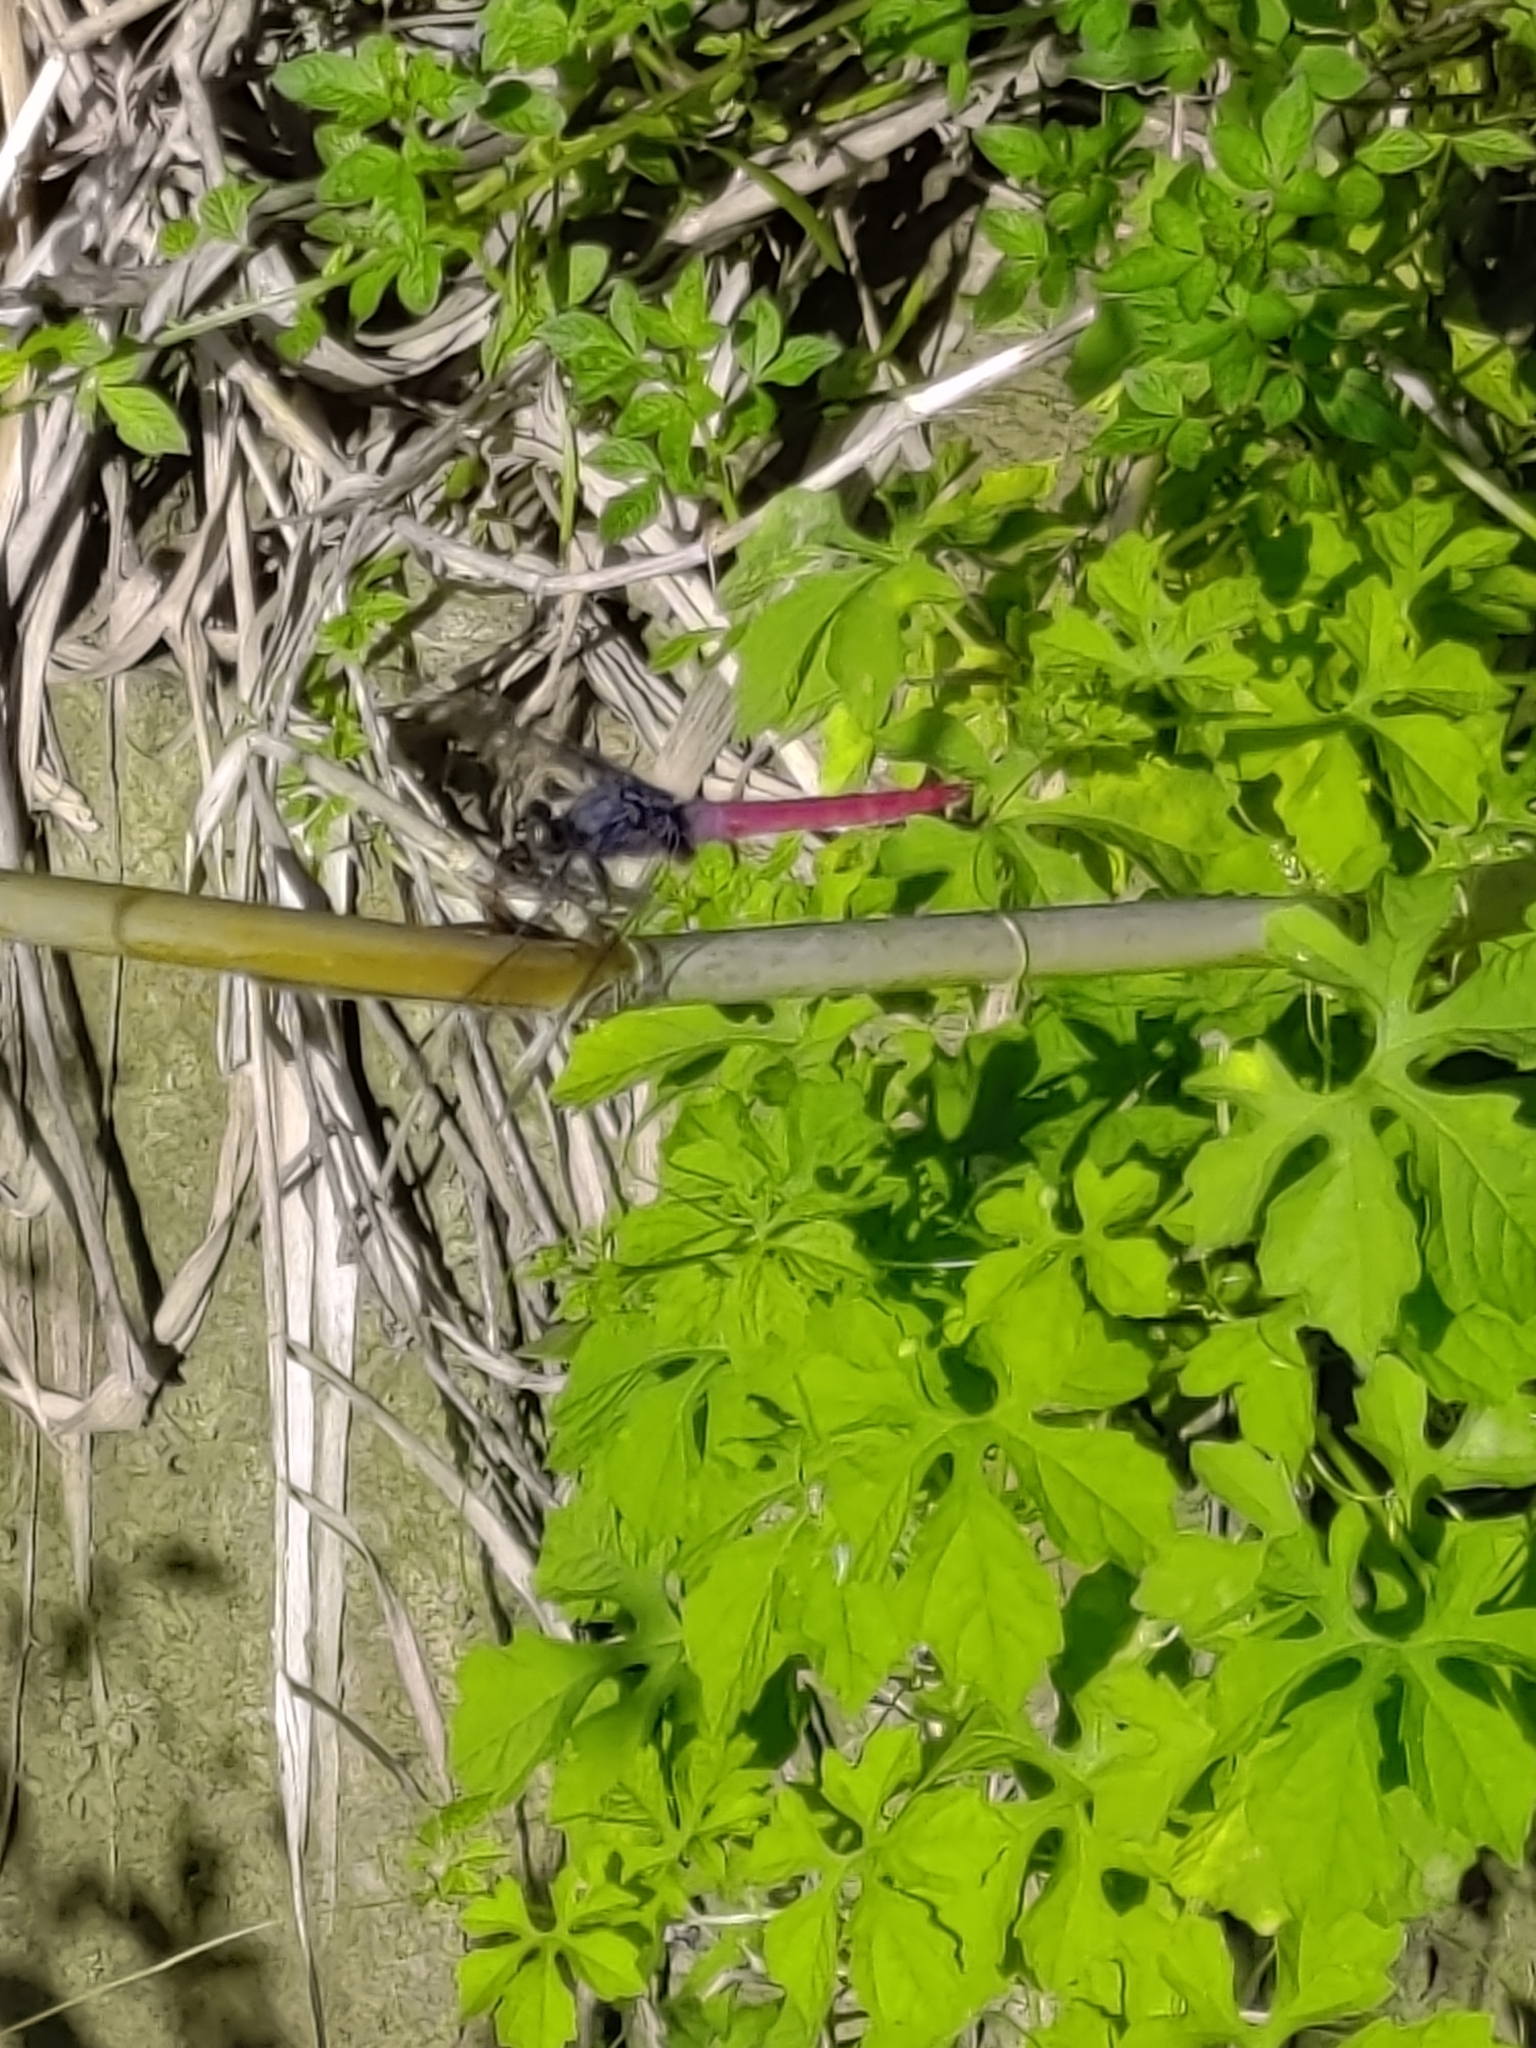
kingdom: Animalia
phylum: Arthropoda
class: Insecta
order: Odonata
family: Libellulidae
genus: Orthetrum
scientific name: Orthetrum pruinosum
